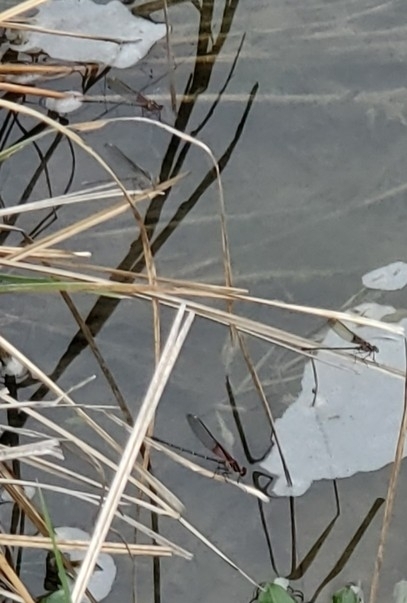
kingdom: Animalia
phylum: Arthropoda
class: Insecta
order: Odonata
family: Calopterygidae
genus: Hetaerina
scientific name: Hetaerina americana
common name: American rubyspot
